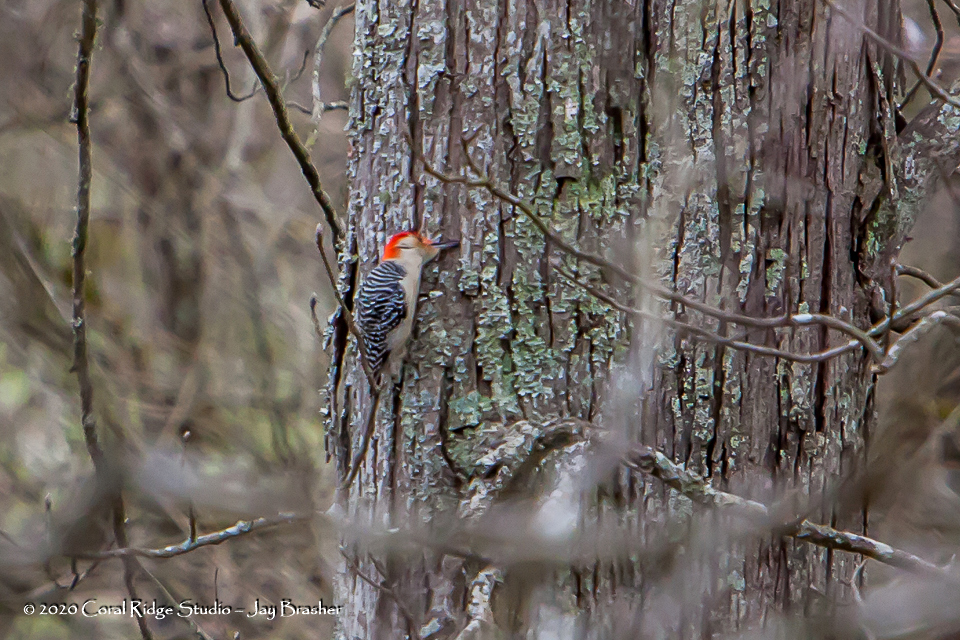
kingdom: Animalia
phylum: Chordata
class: Aves
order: Piciformes
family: Picidae
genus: Melanerpes
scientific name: Melanerpes carolinus
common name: Red-bellied woodpecker
